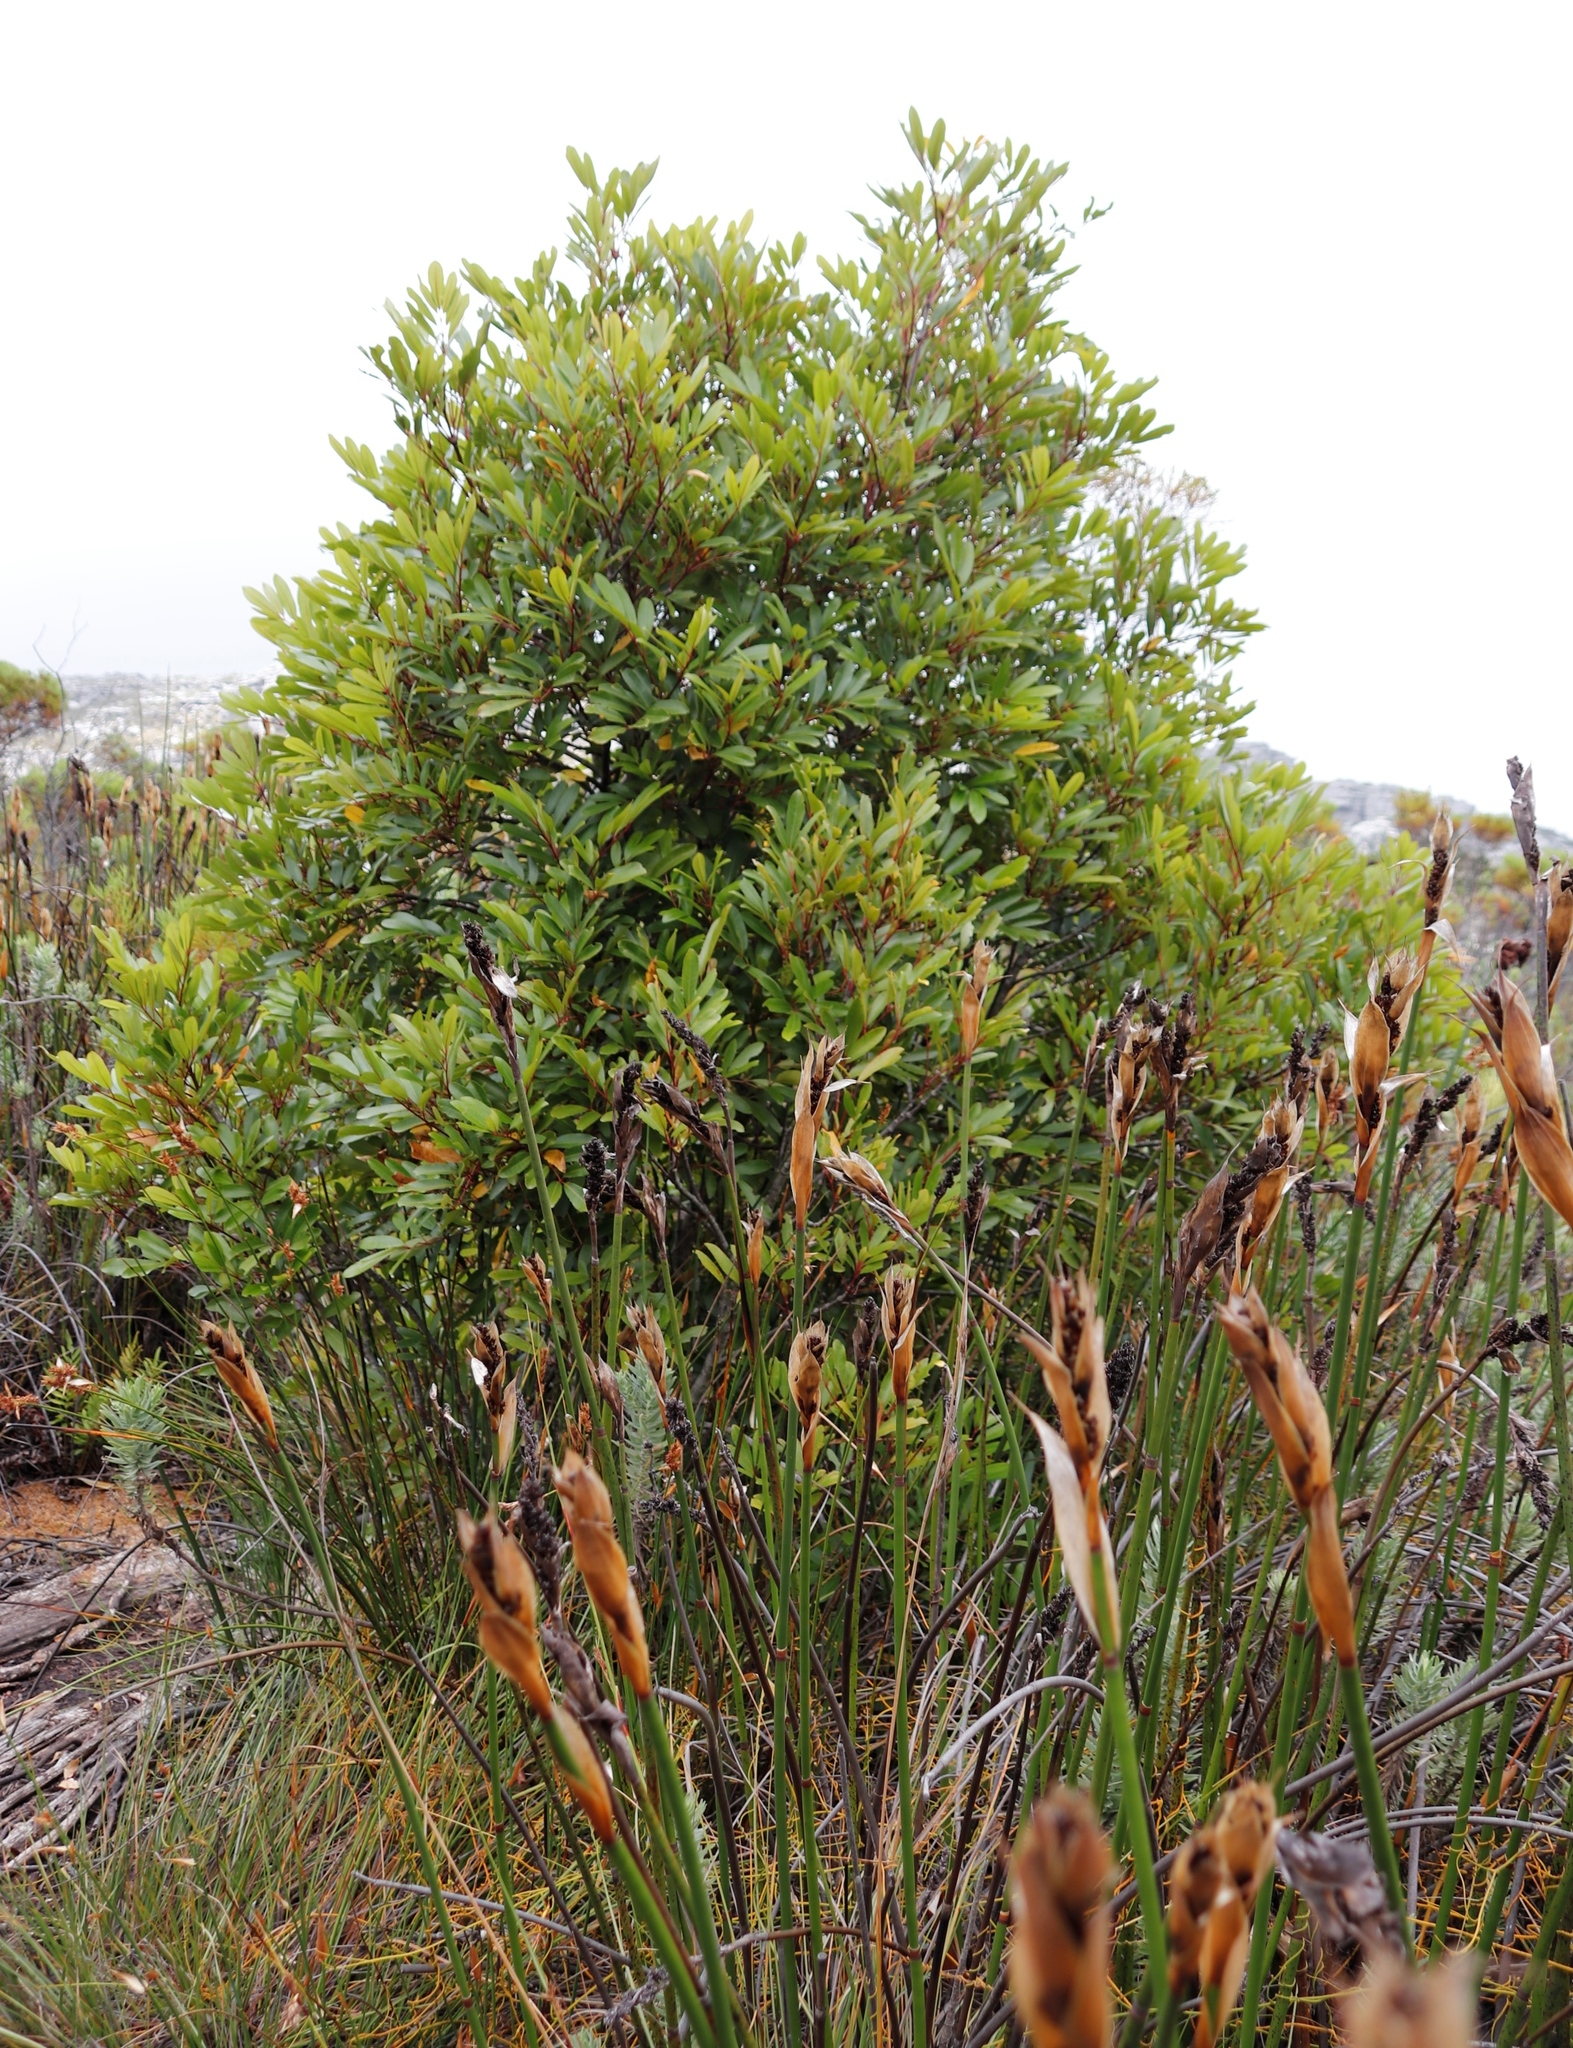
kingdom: Plantae
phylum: Tracheophyta
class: Magnoliopsida
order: Oxalidales
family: Cunoniaceae
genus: Cunonia
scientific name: Cunonia capensis
